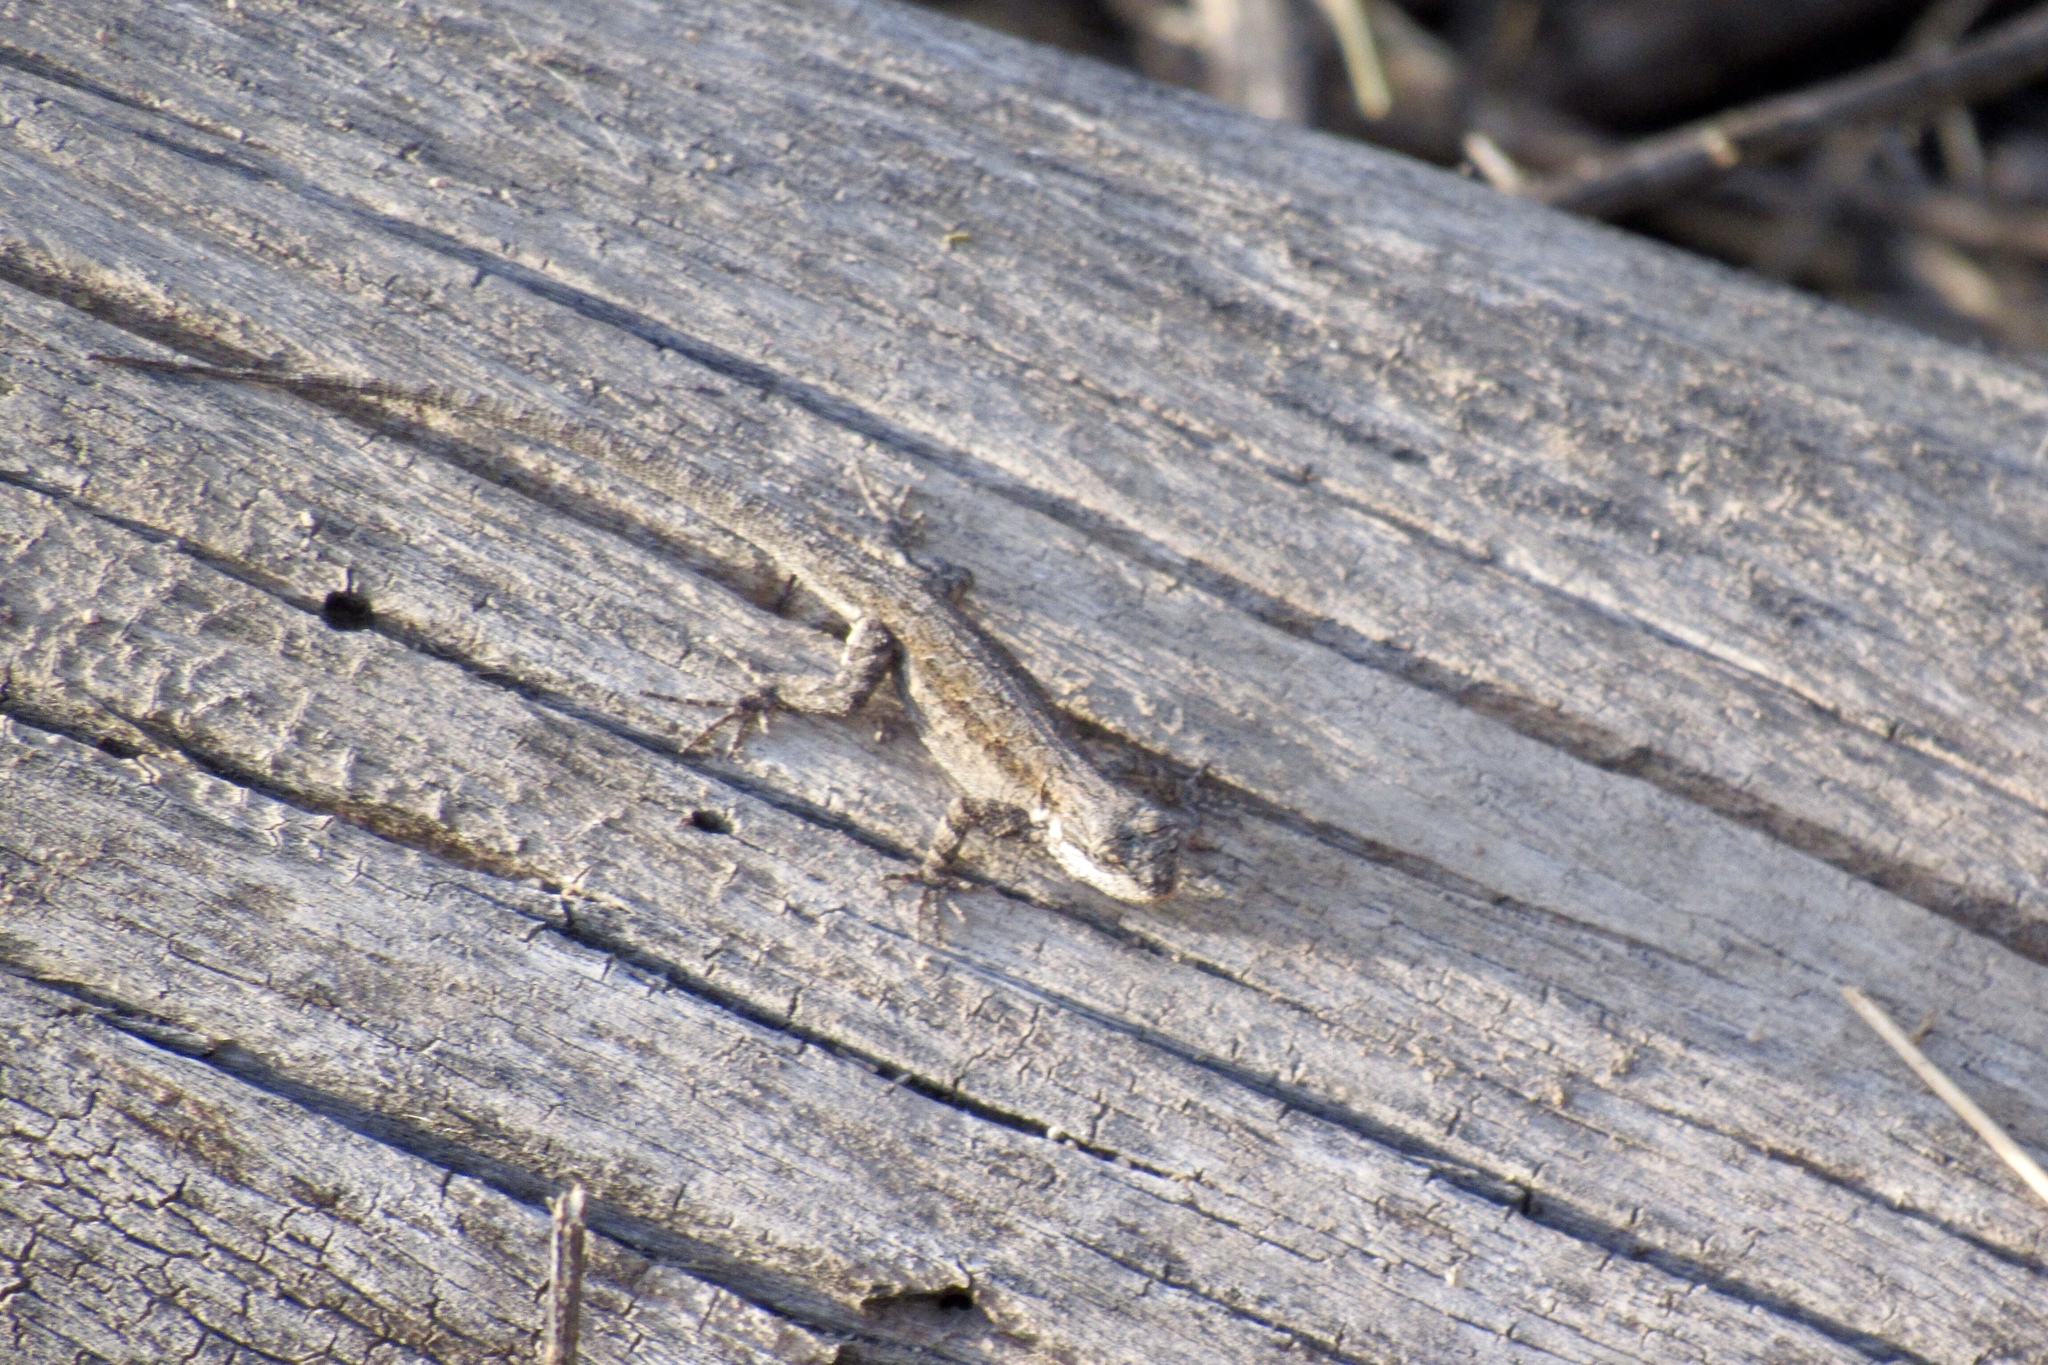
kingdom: Animalia
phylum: Chordata
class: Squamata
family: Phrynosomatidae
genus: Urosaurus
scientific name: Urosaurus ornatus
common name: Ornate tree lizard
